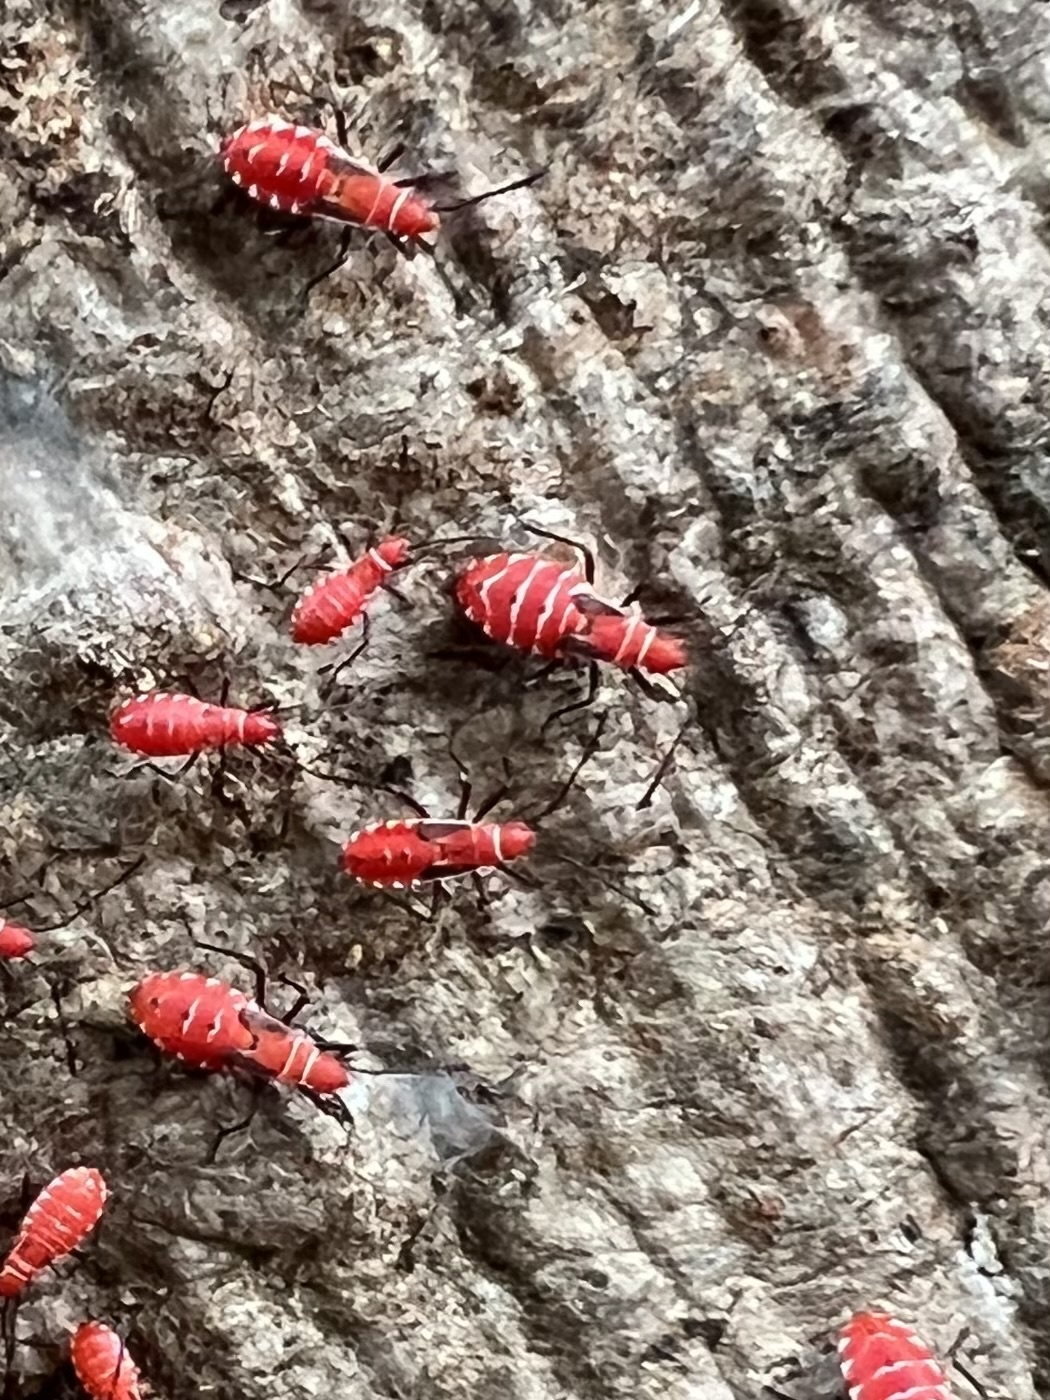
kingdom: Animalia
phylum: Arthropoda
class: Insecta
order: Hemiptera
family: Pyrrhocoridae
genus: Dysdercus
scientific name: Dysdercus andreae
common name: St. andrew's cotton stainer
